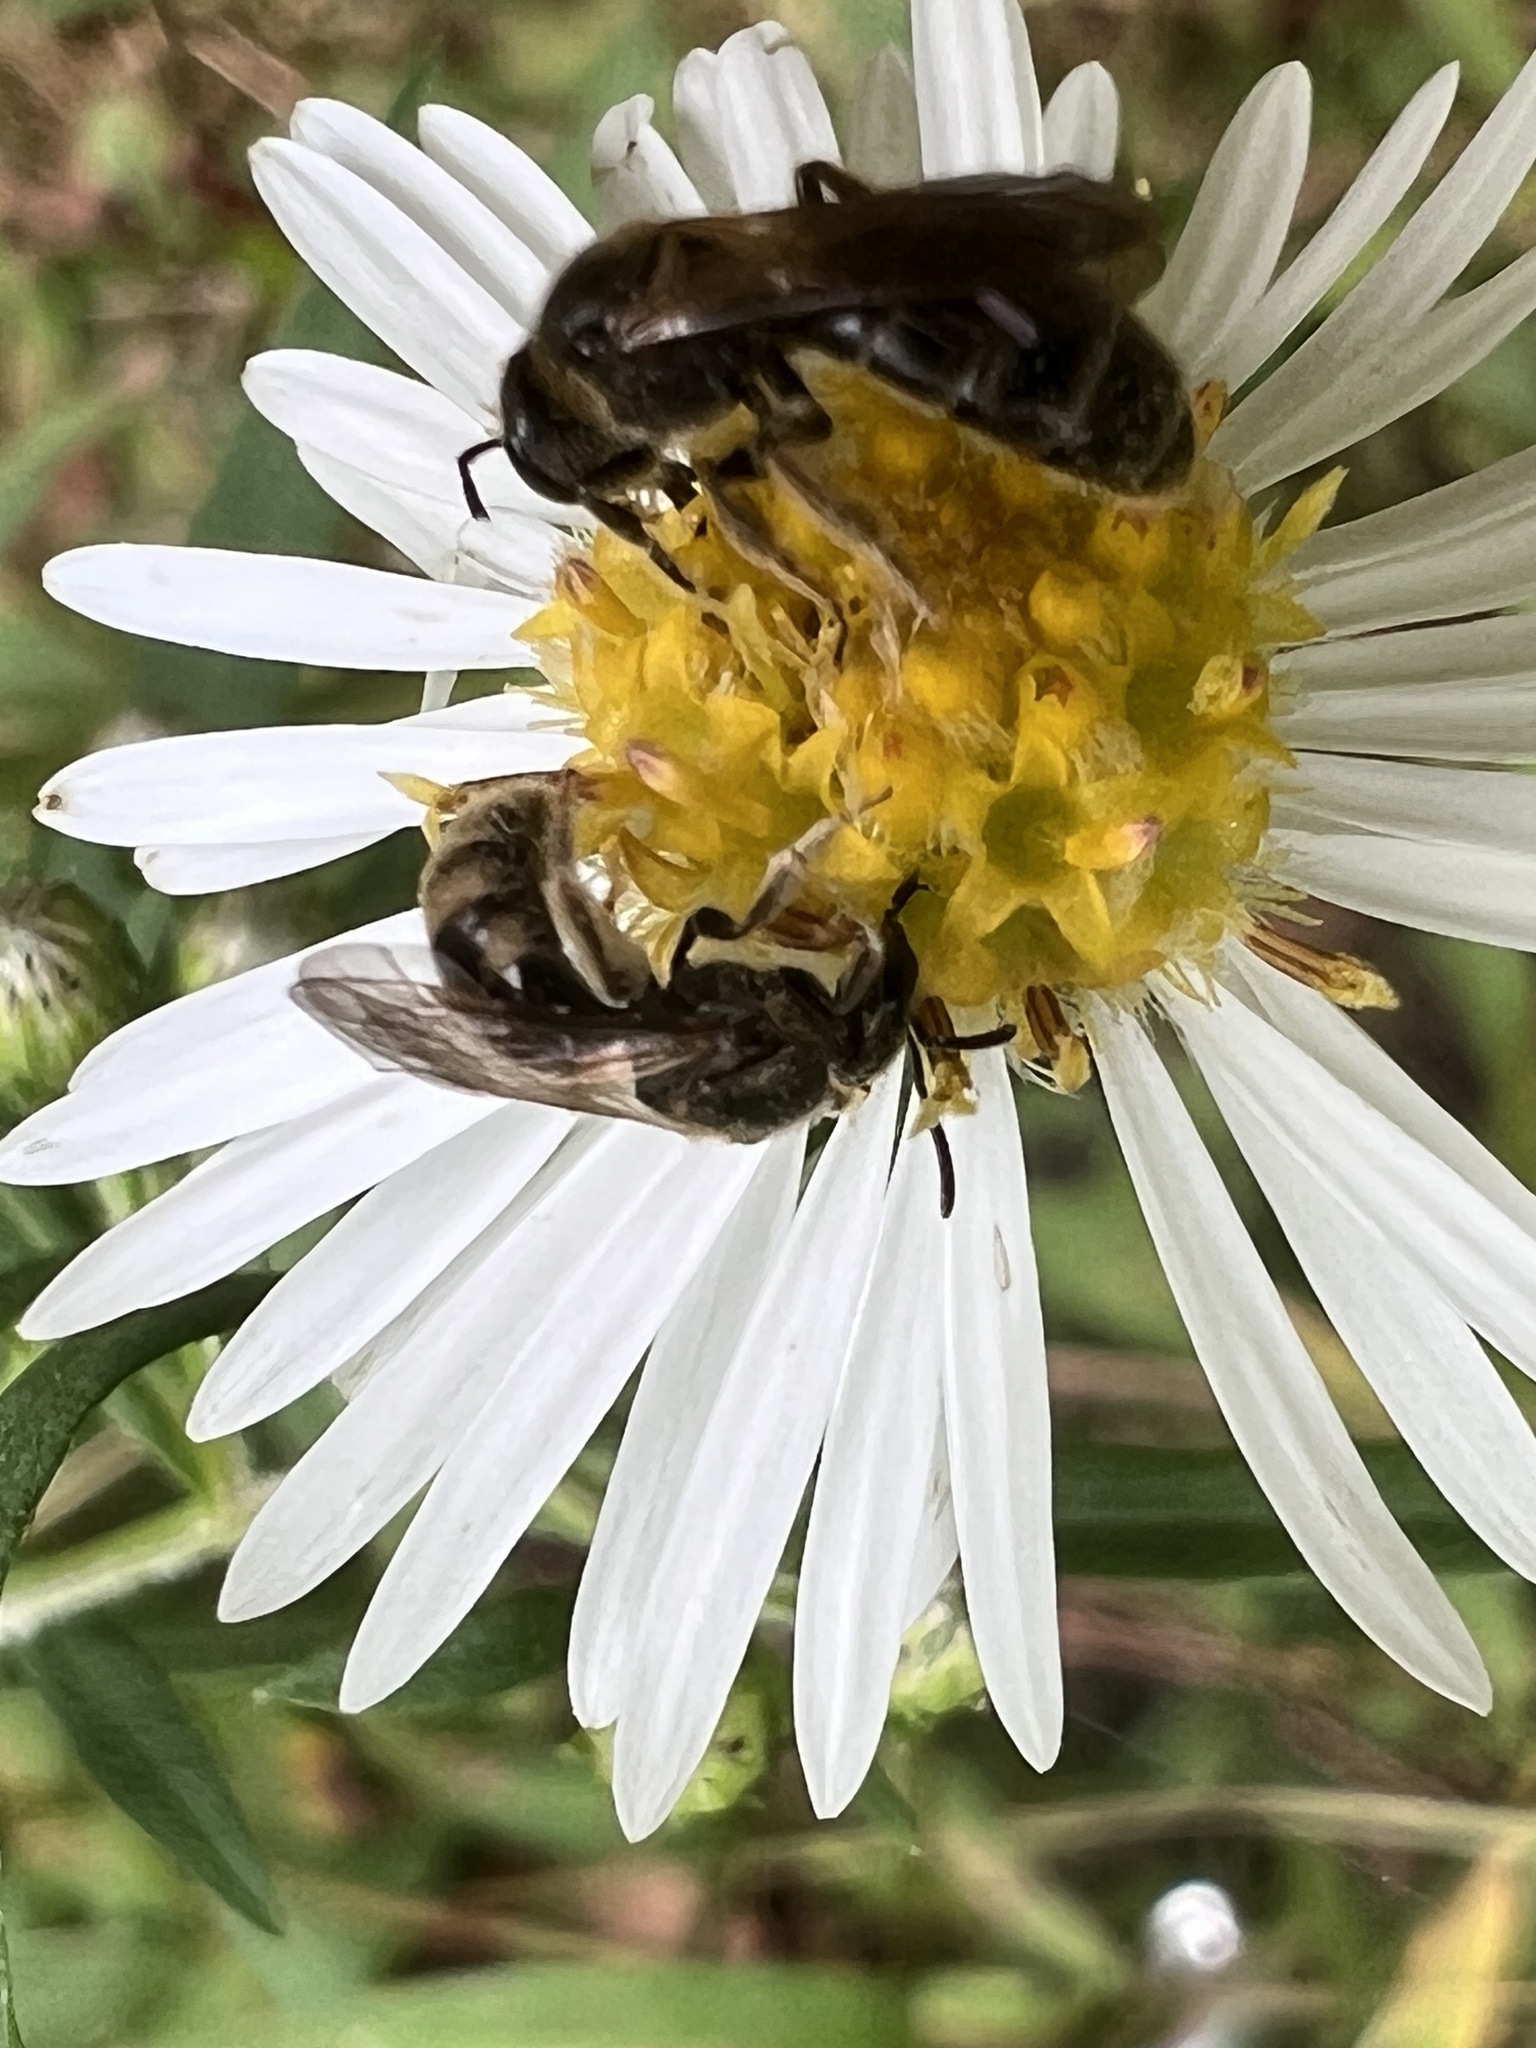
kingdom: Animalia
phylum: Arthropoda
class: Insecta
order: Hymenoptera
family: Halictidae
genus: Lasioglossum
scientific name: Lasioglossum quebecense
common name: Quebec sweat bee
